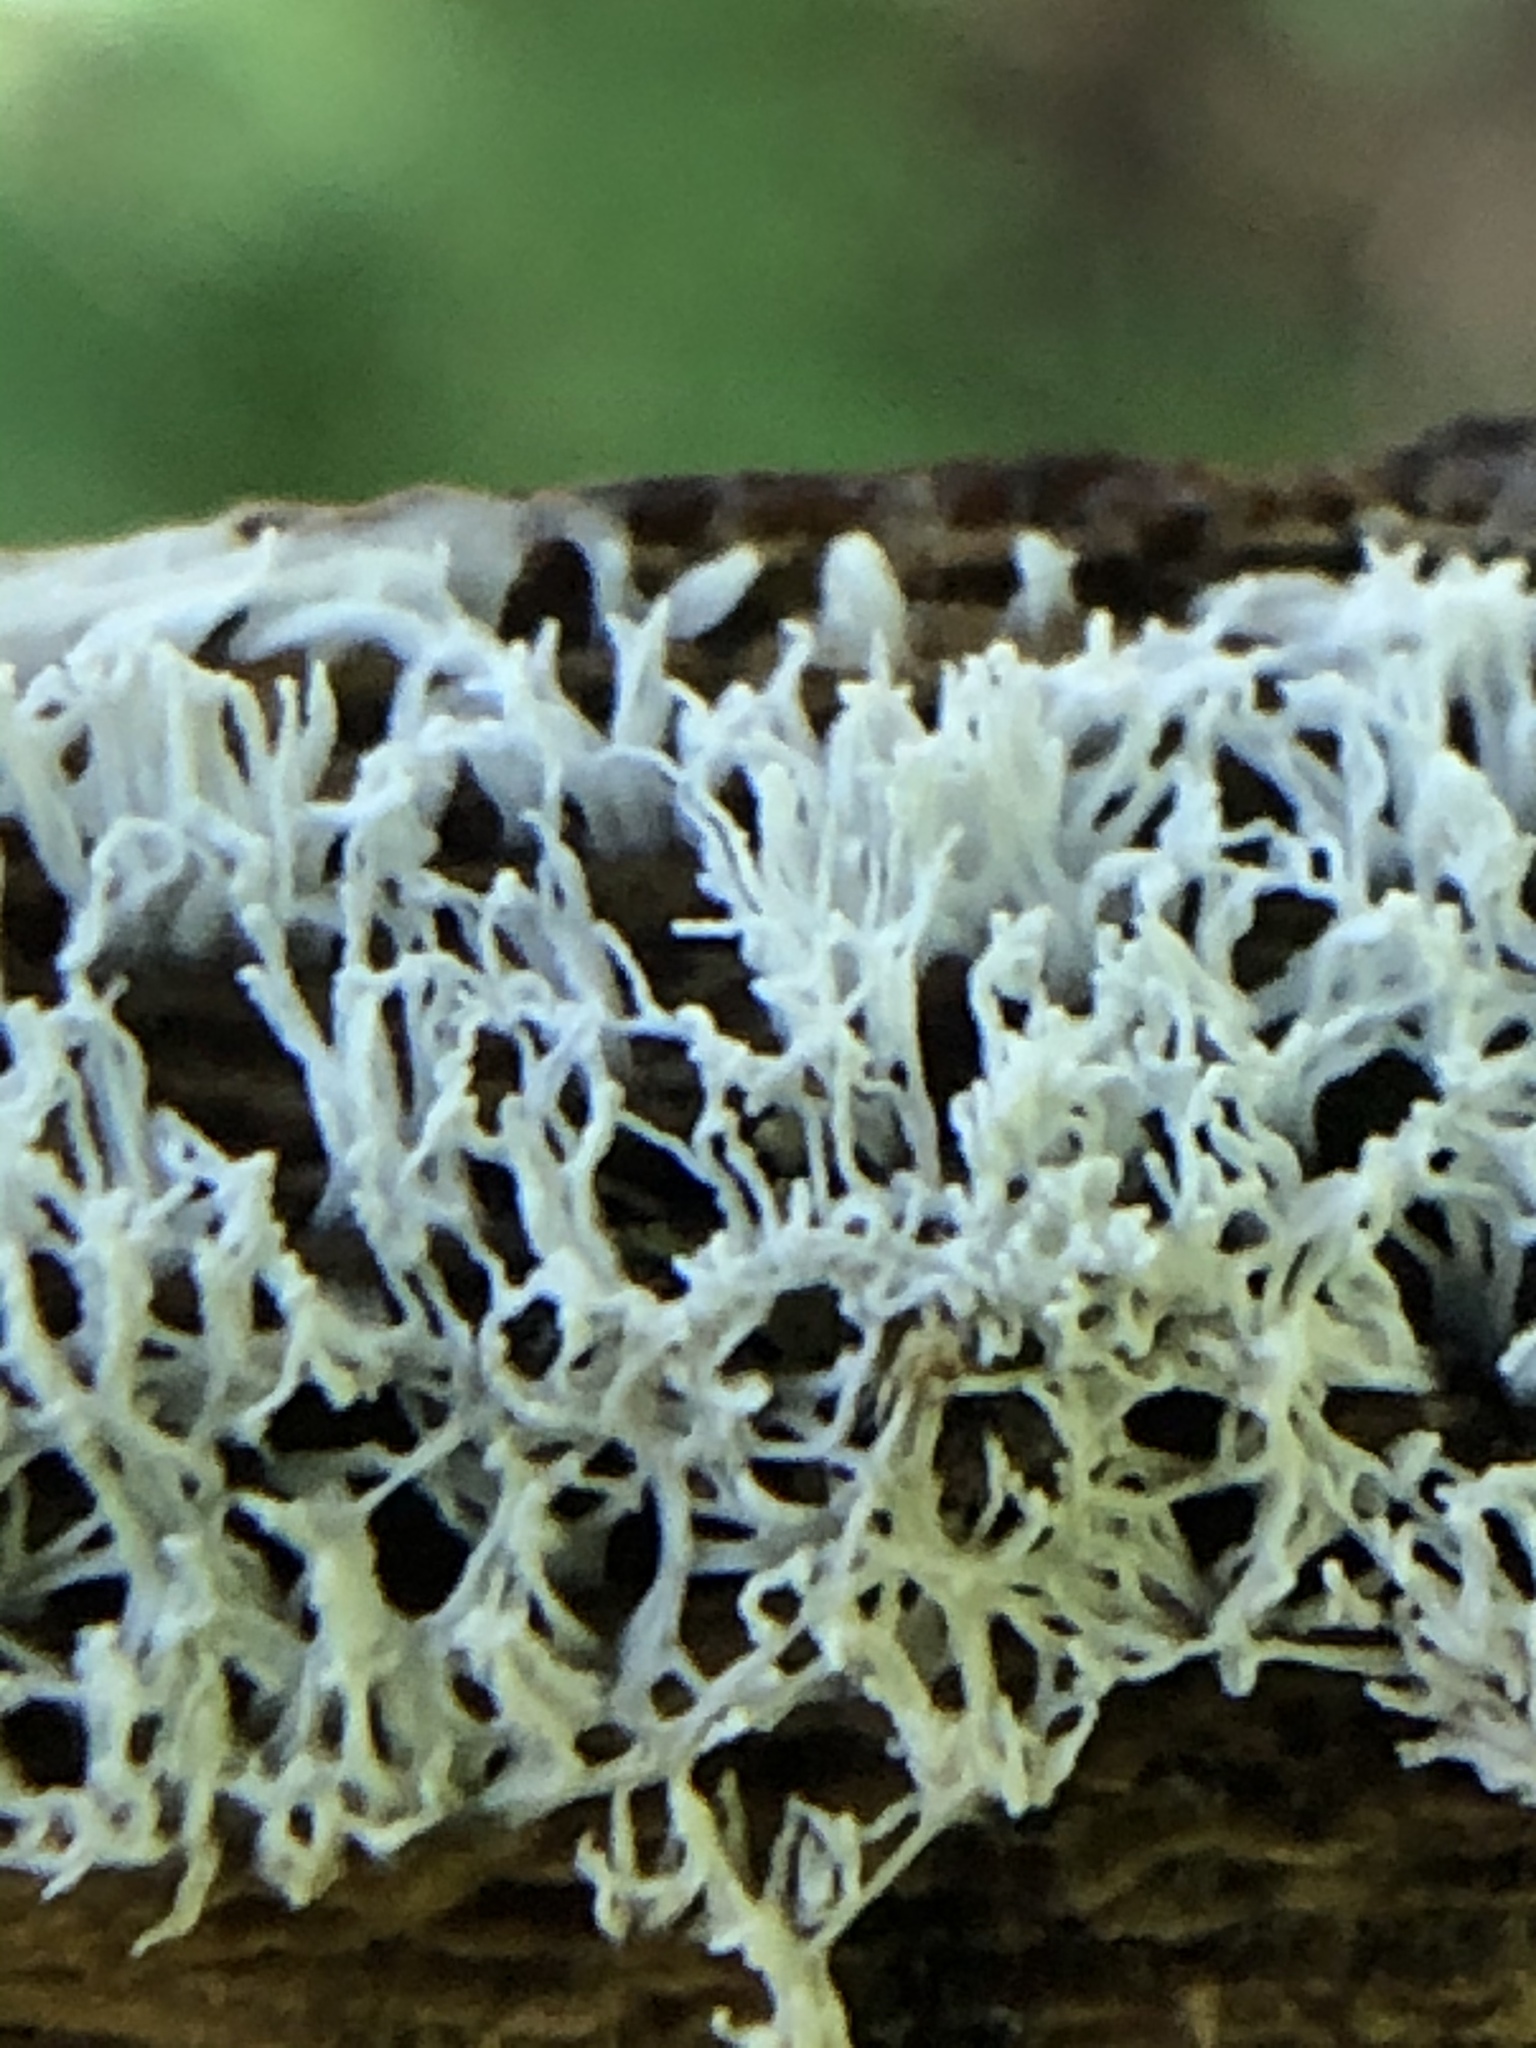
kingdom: Protozoa
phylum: Mycetozoa
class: Protosteliomycetes
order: Ceratiomyxales
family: Ceratiomyxaceae
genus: Ceratiomyxa
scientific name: Ceratiomyxa fruticulosa
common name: Honeycomb coral slime mold
